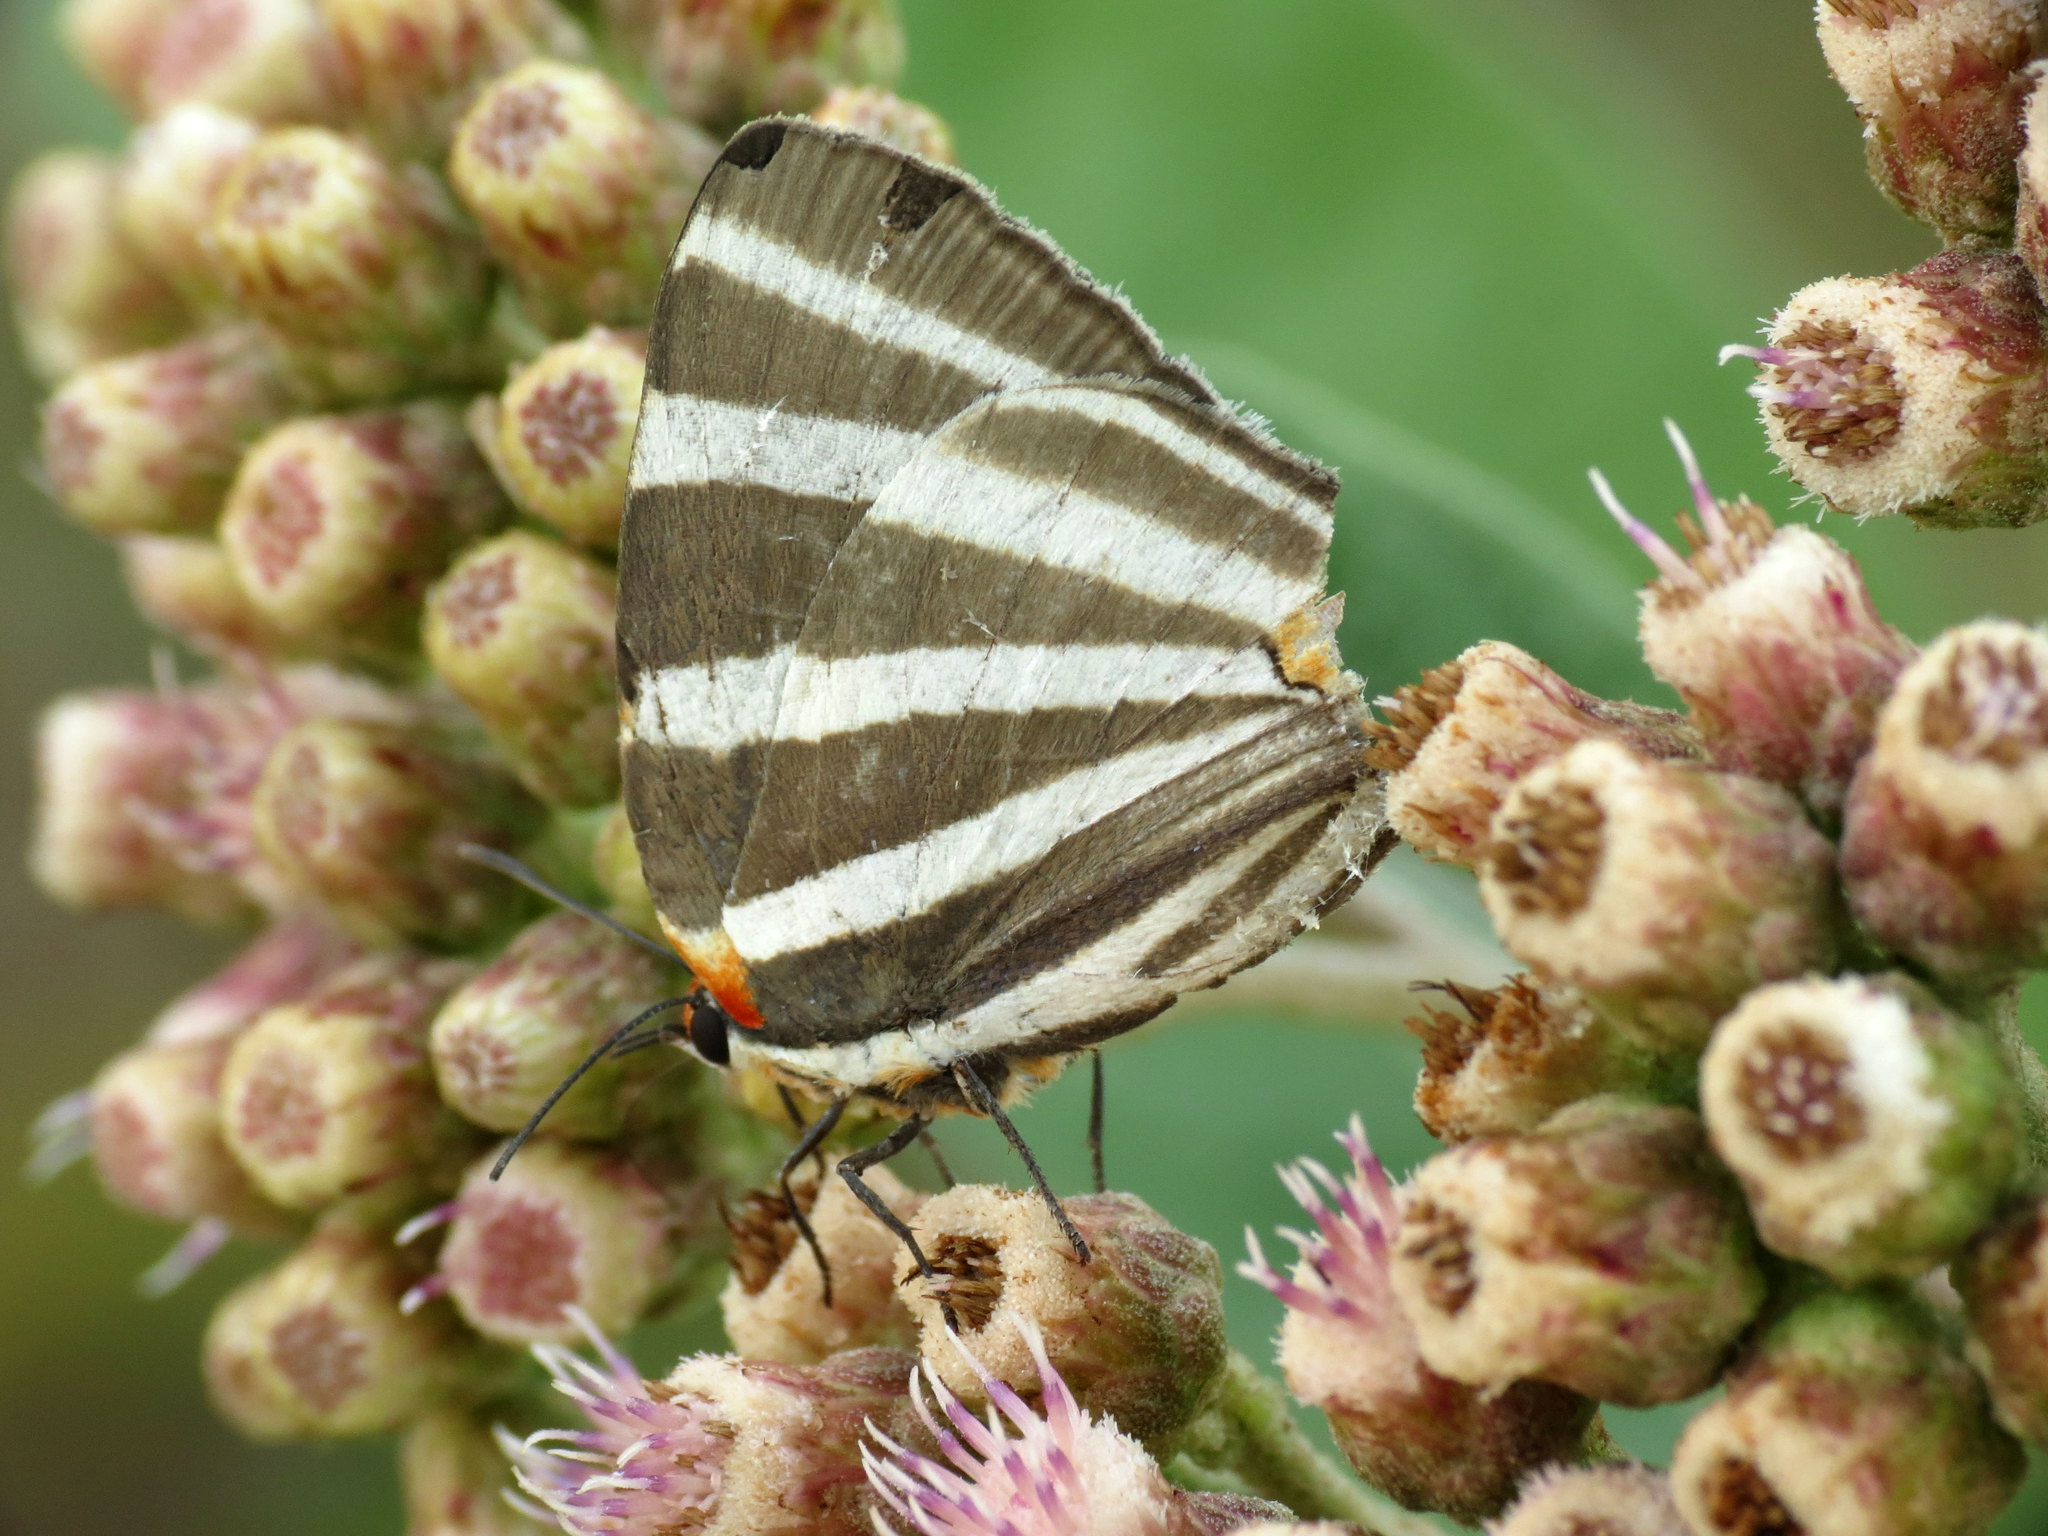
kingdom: Animalia
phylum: Arthropoda
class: Insecta
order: Lepidoptera
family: Lycaenidae
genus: Thecla
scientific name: Thecla bathildis
